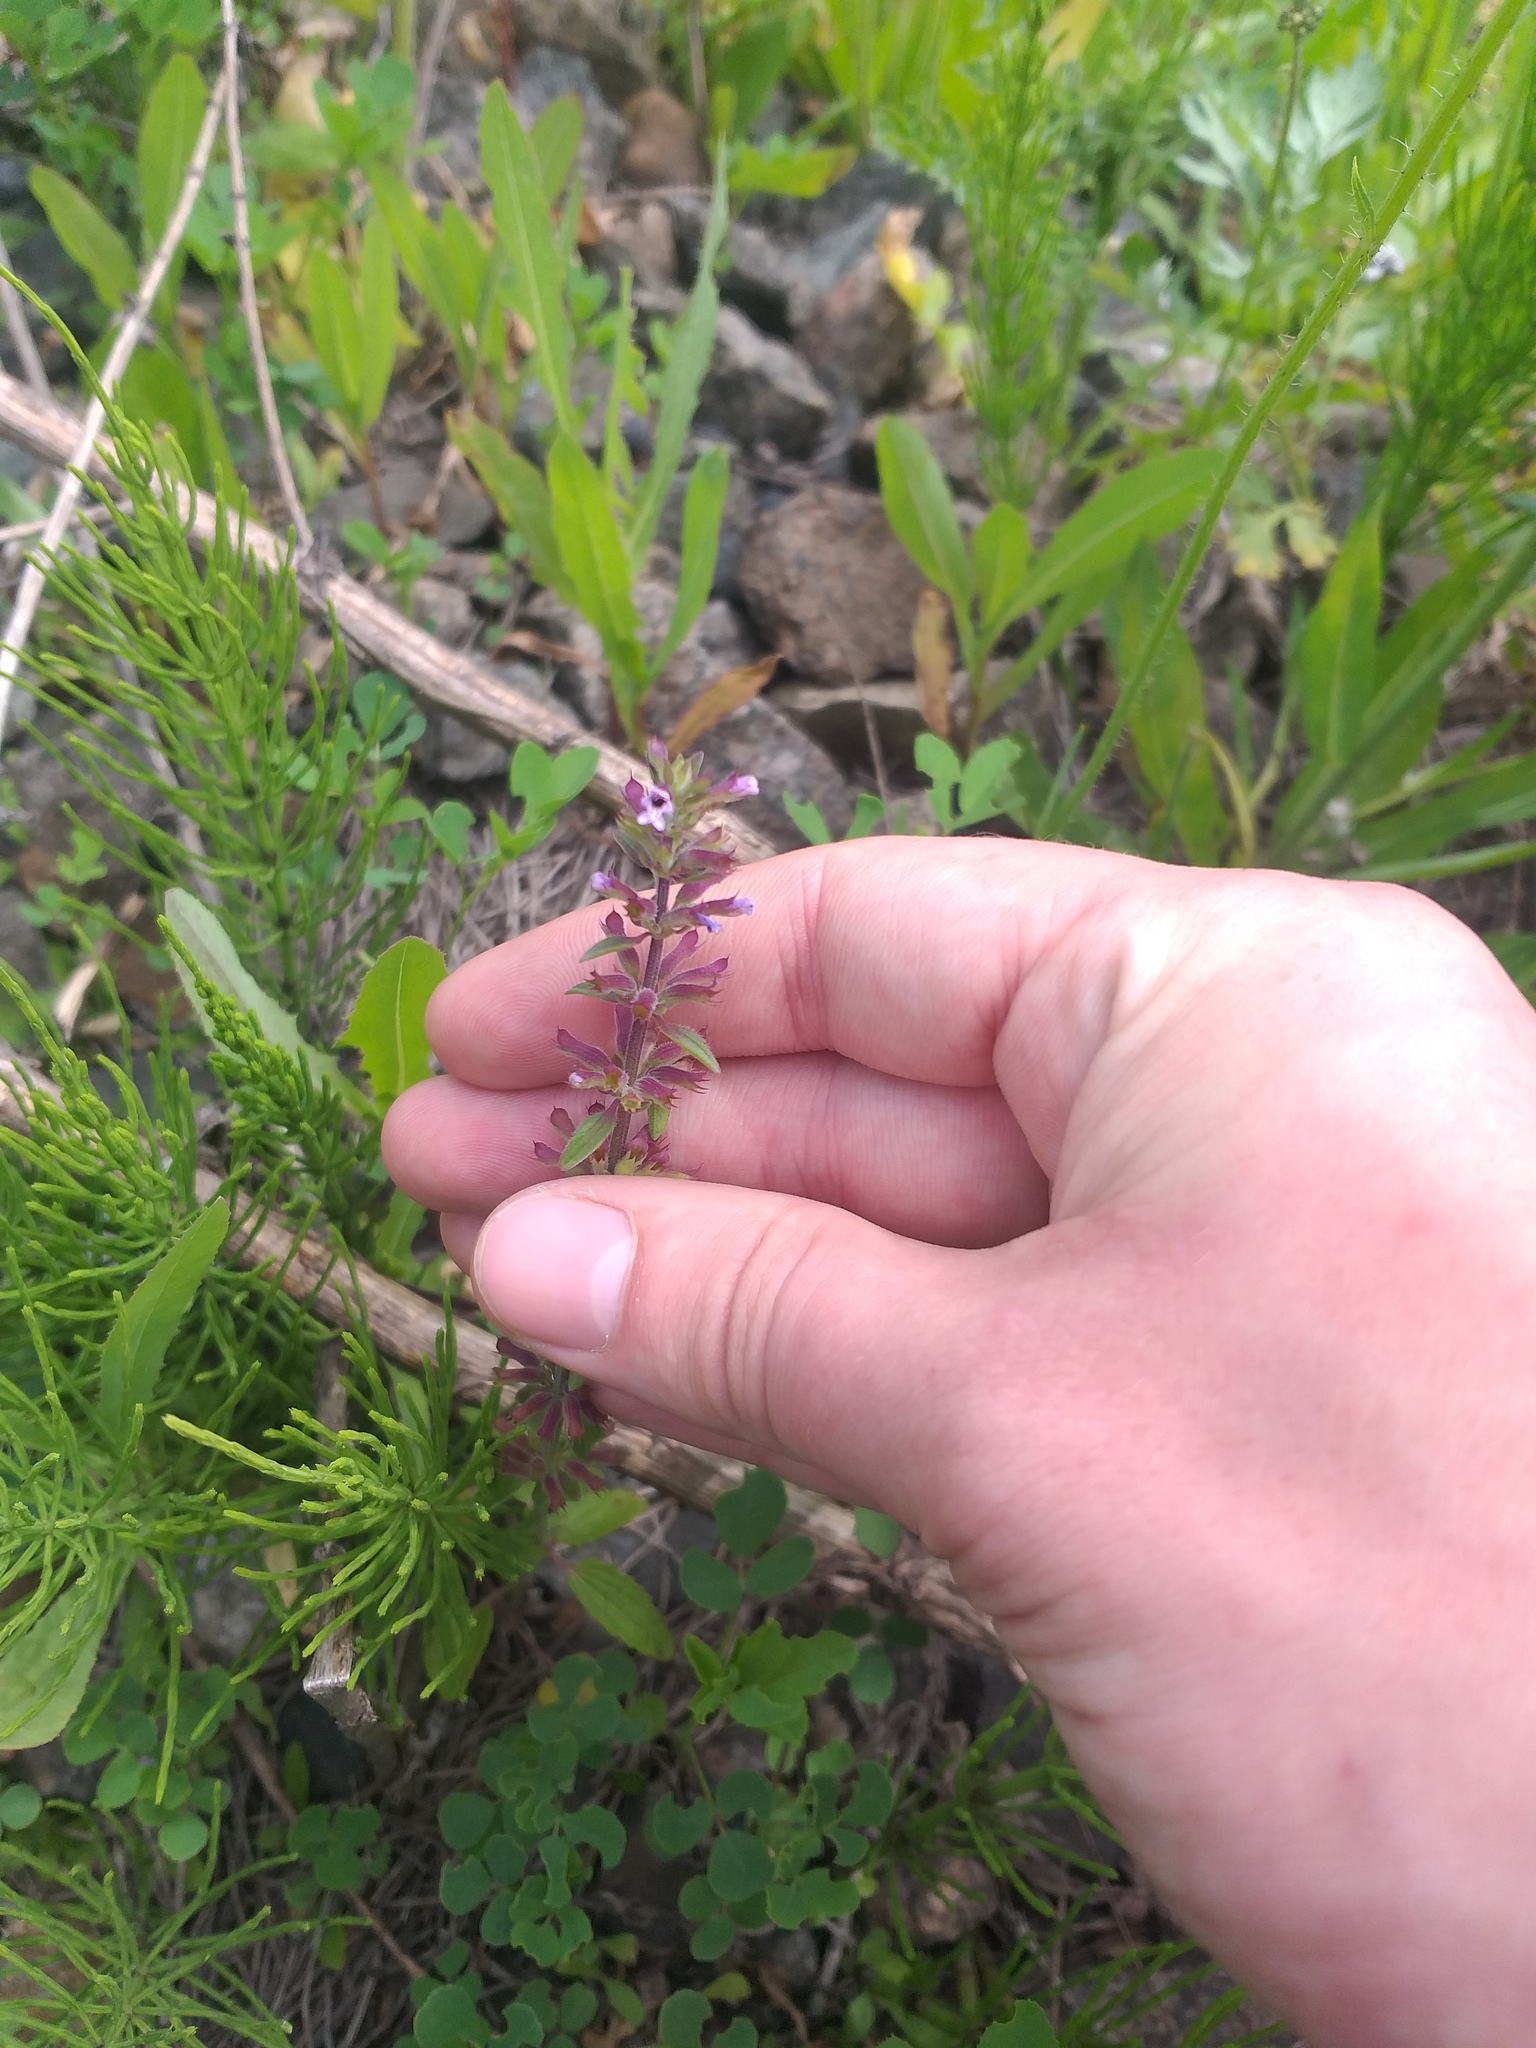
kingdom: Plantae
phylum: Tracheophyta
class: Magnoliopsida
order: Lamiales
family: Lamiaceae
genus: Dracocephalum
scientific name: Dracocephalum thymiflorum
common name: Thymeleaf dragonhead
